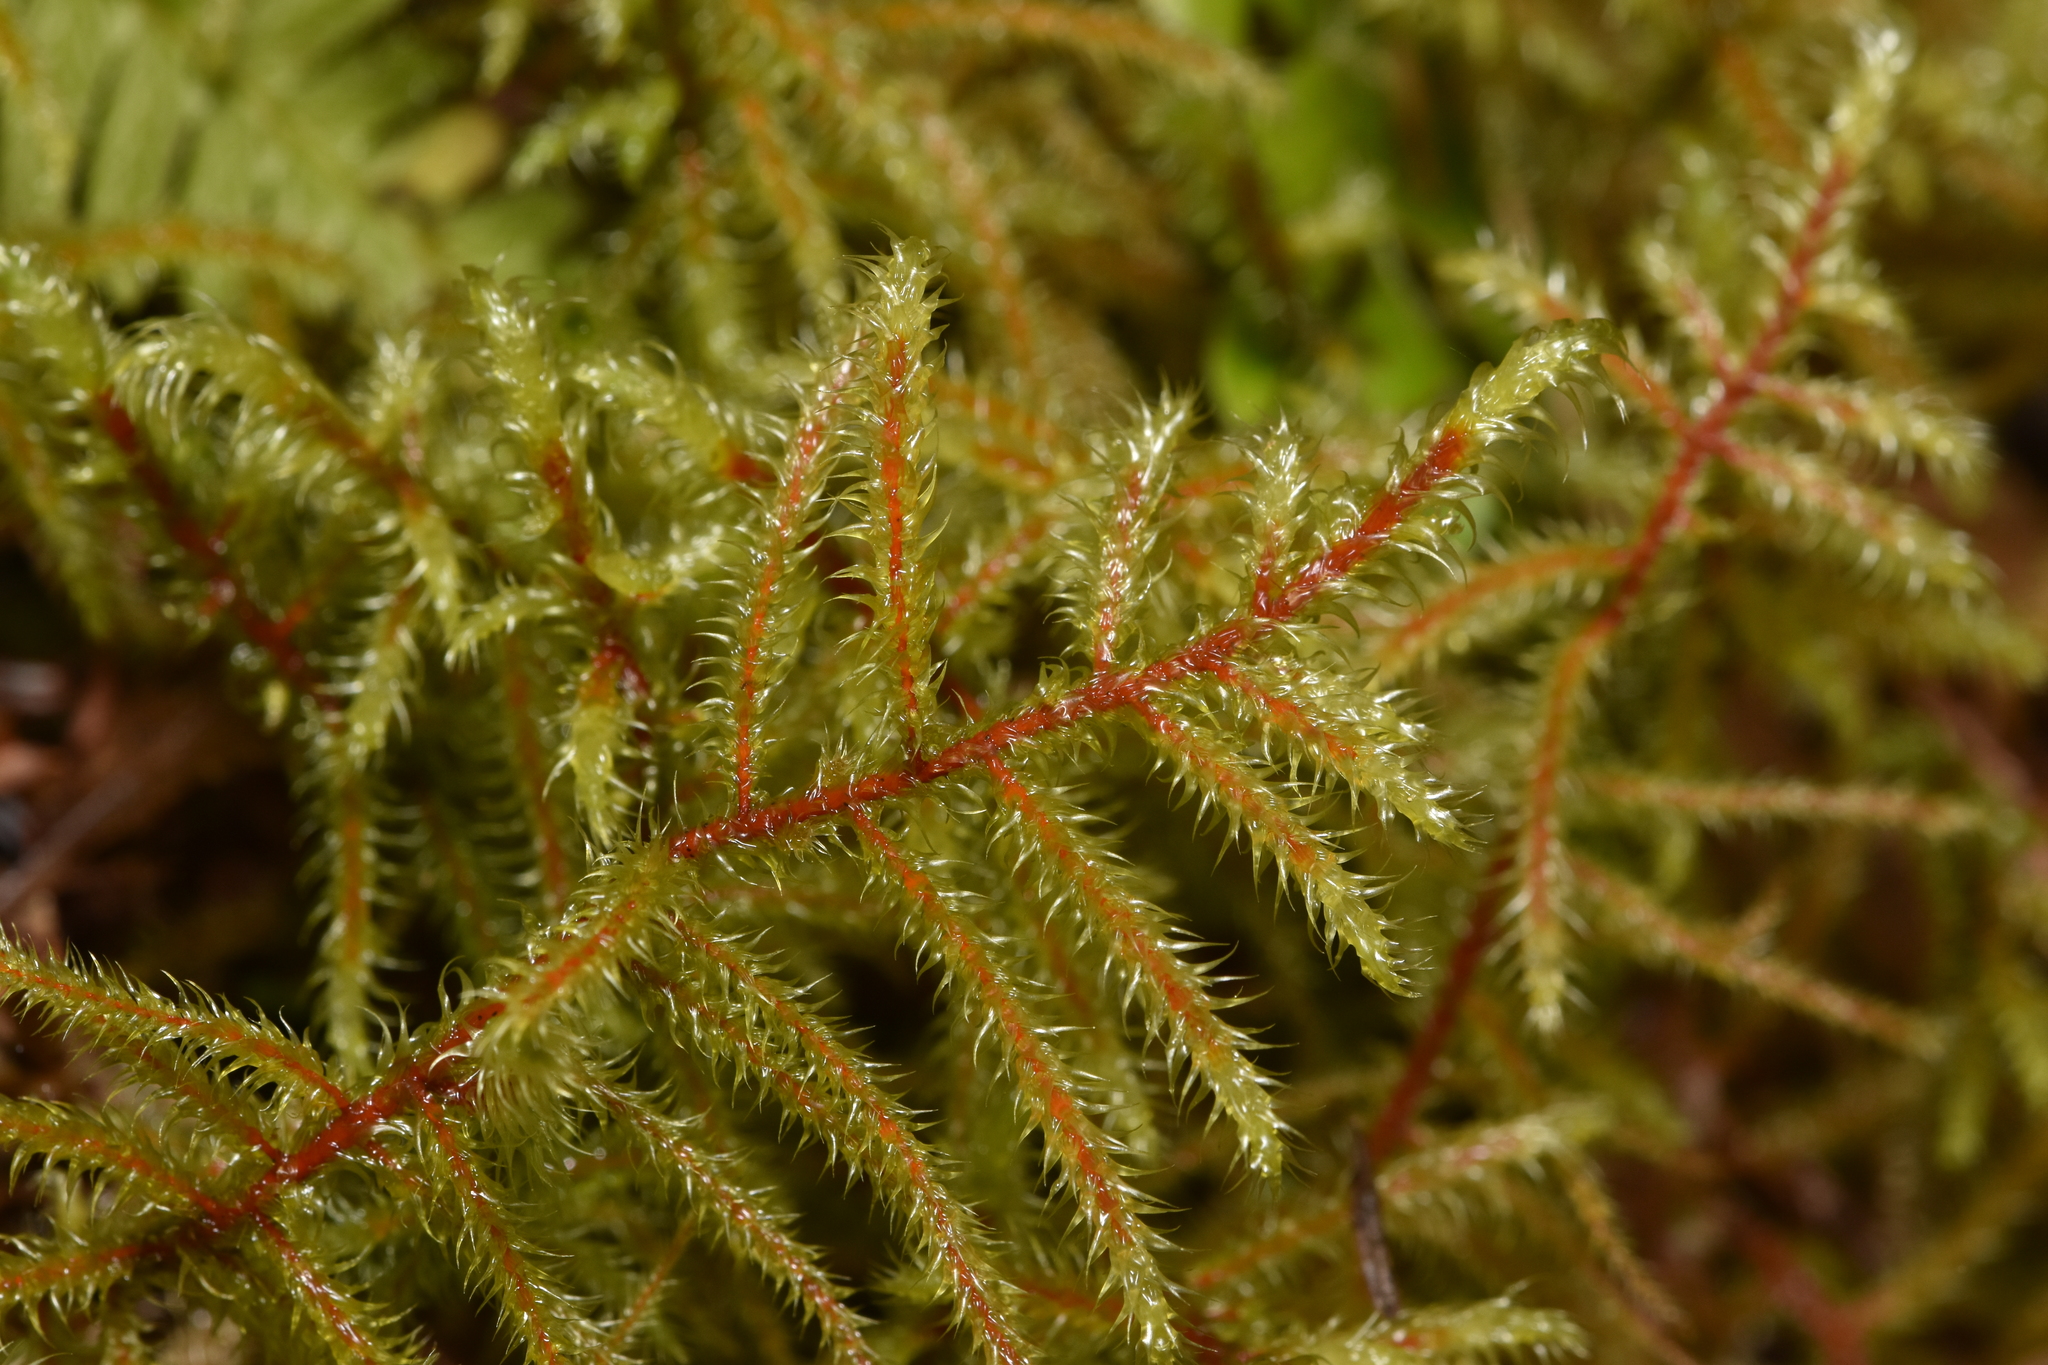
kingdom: Plantae
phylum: Bryophyta
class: Bryopsida
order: Hypnales
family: Hylocomiaceae
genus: Rhytidiadelphus
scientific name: Rhytidiadelphus loreus
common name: Lanky moss
